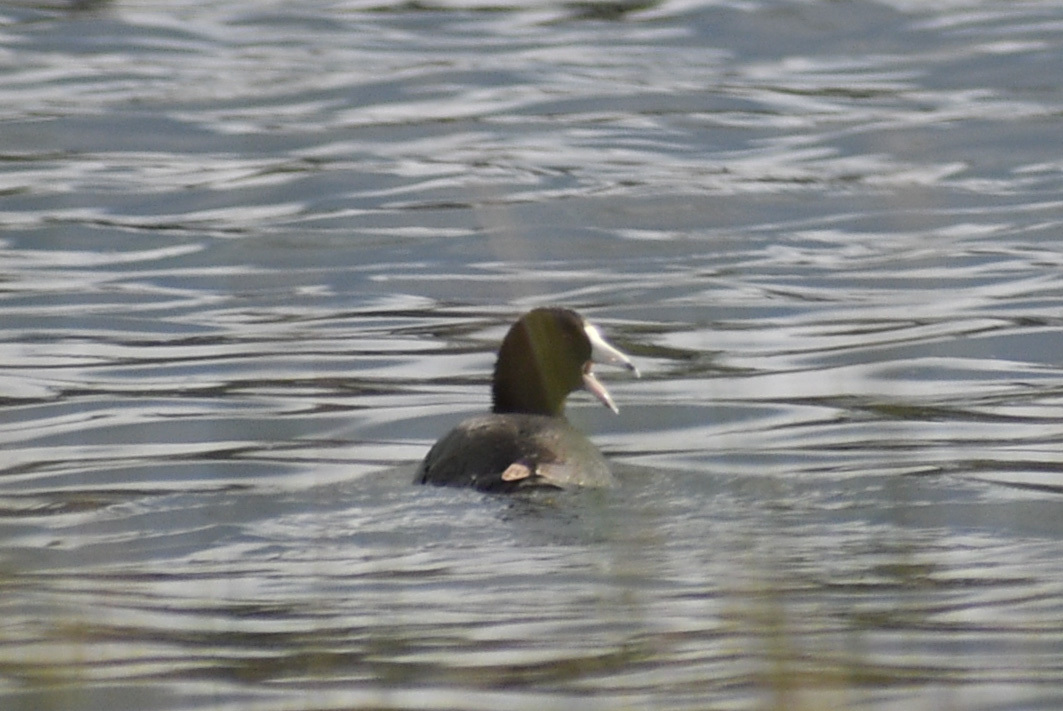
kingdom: Animalia
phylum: Chordata
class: Aves
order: Gruiformes
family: Rallidae
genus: Fulica
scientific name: Fulica americana
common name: American coot
